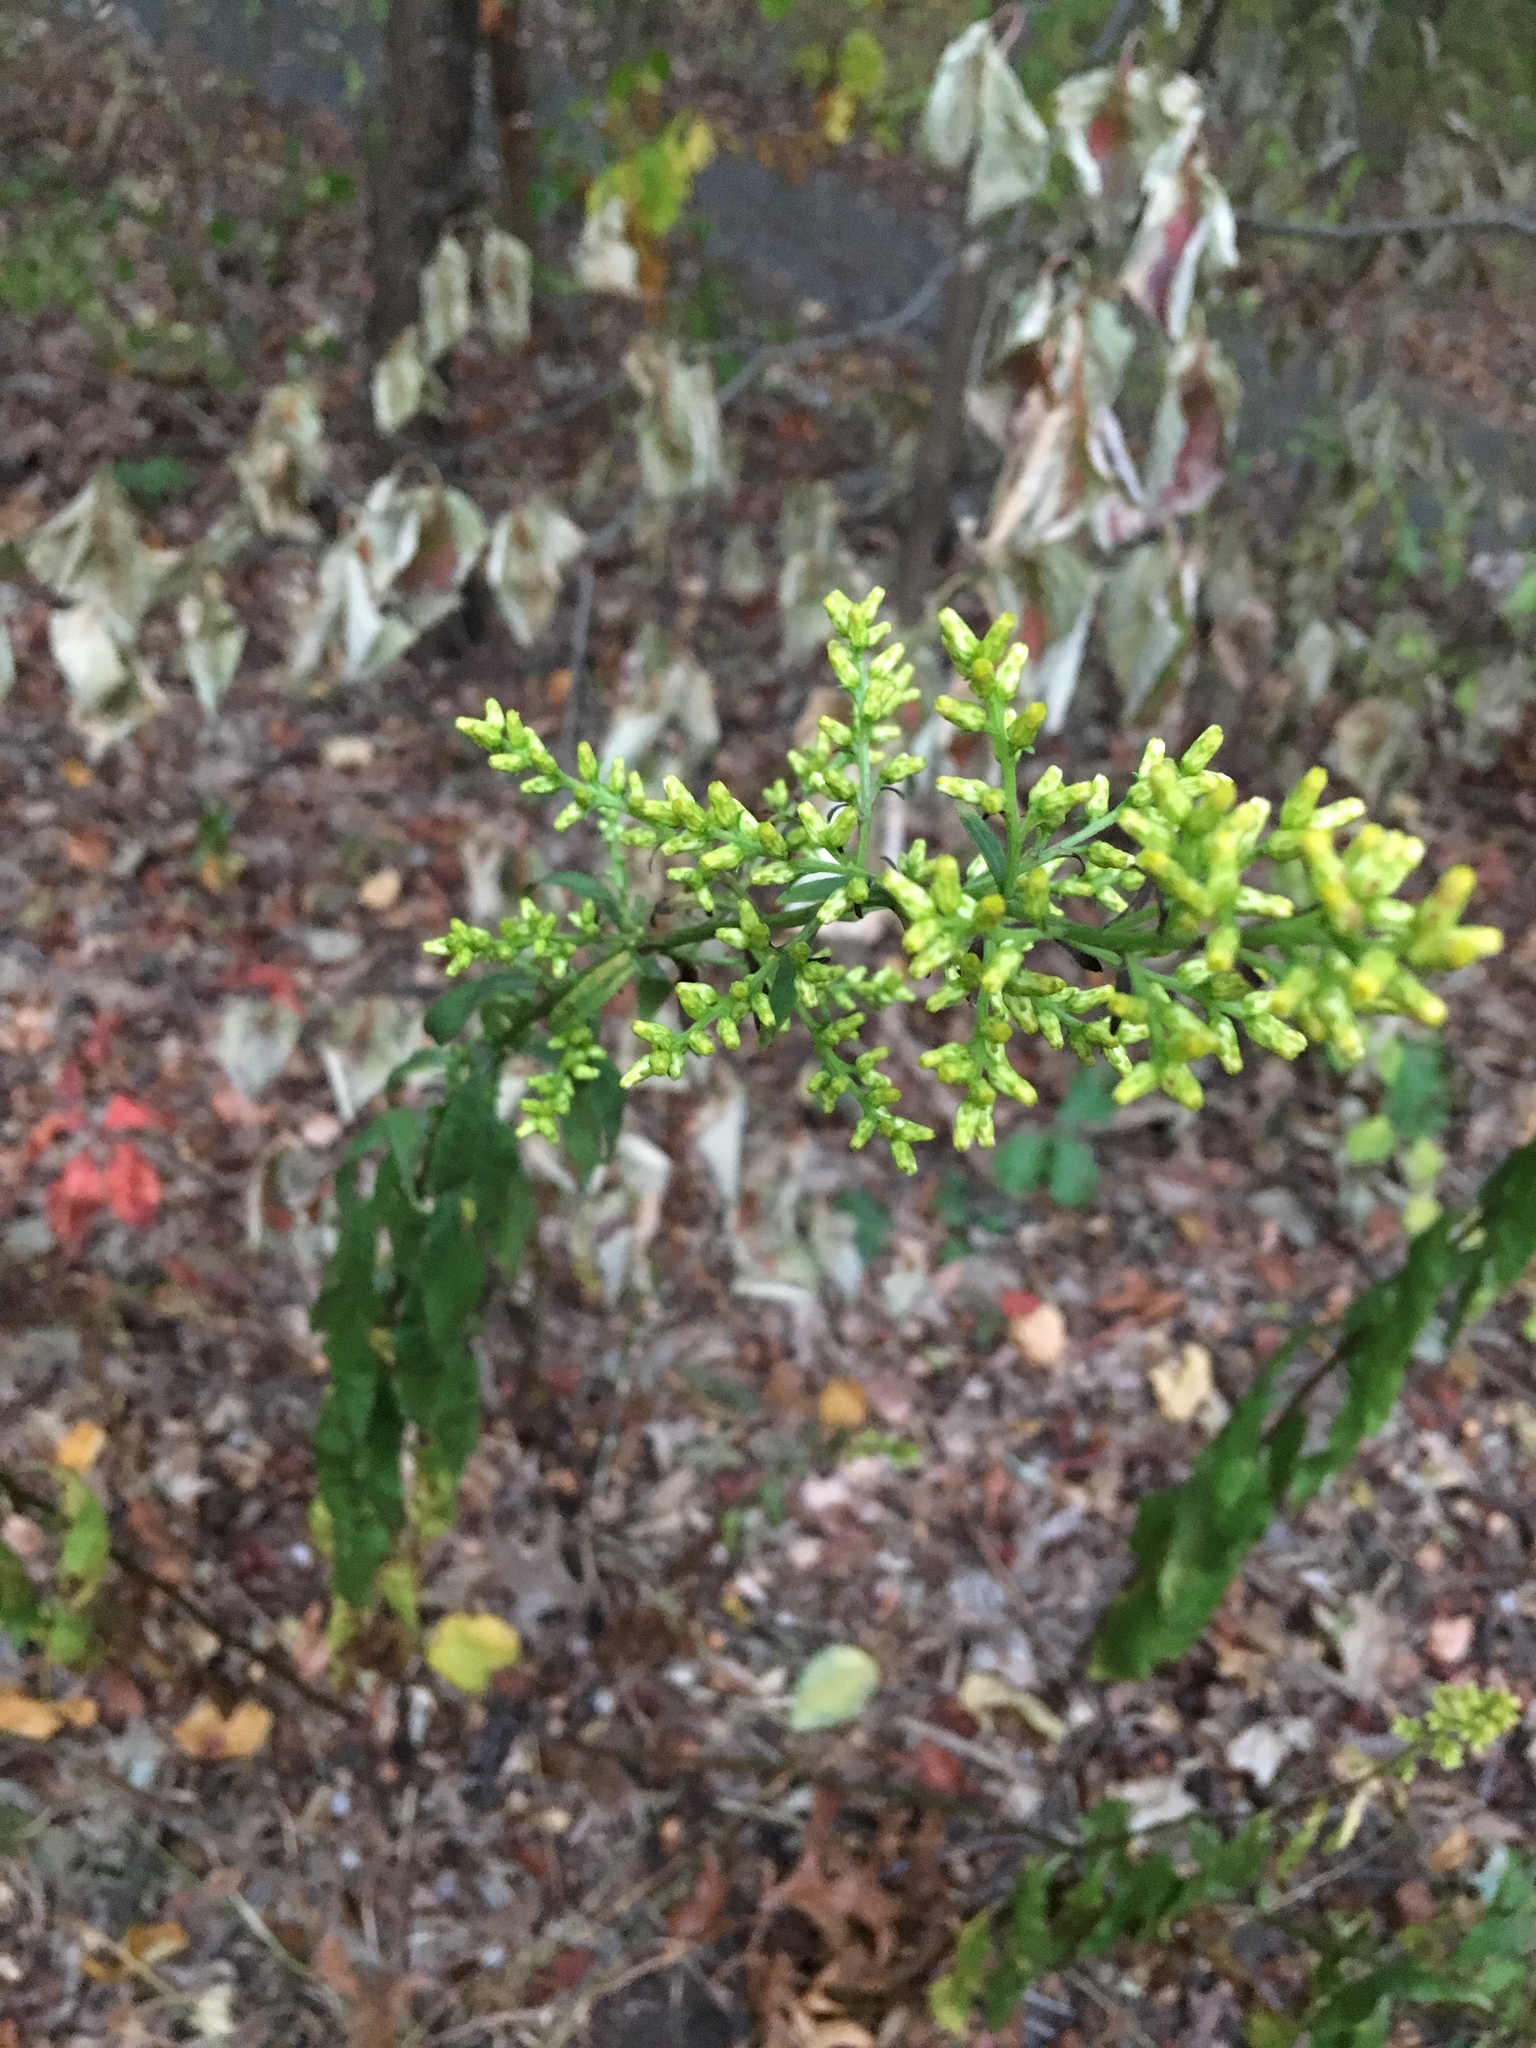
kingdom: Plantae
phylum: Tracheophyta
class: Magnoliopsida
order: Asterales
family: Asteraceae
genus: Solidago
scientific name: Solidago speciosa
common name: Showy goldenrod
